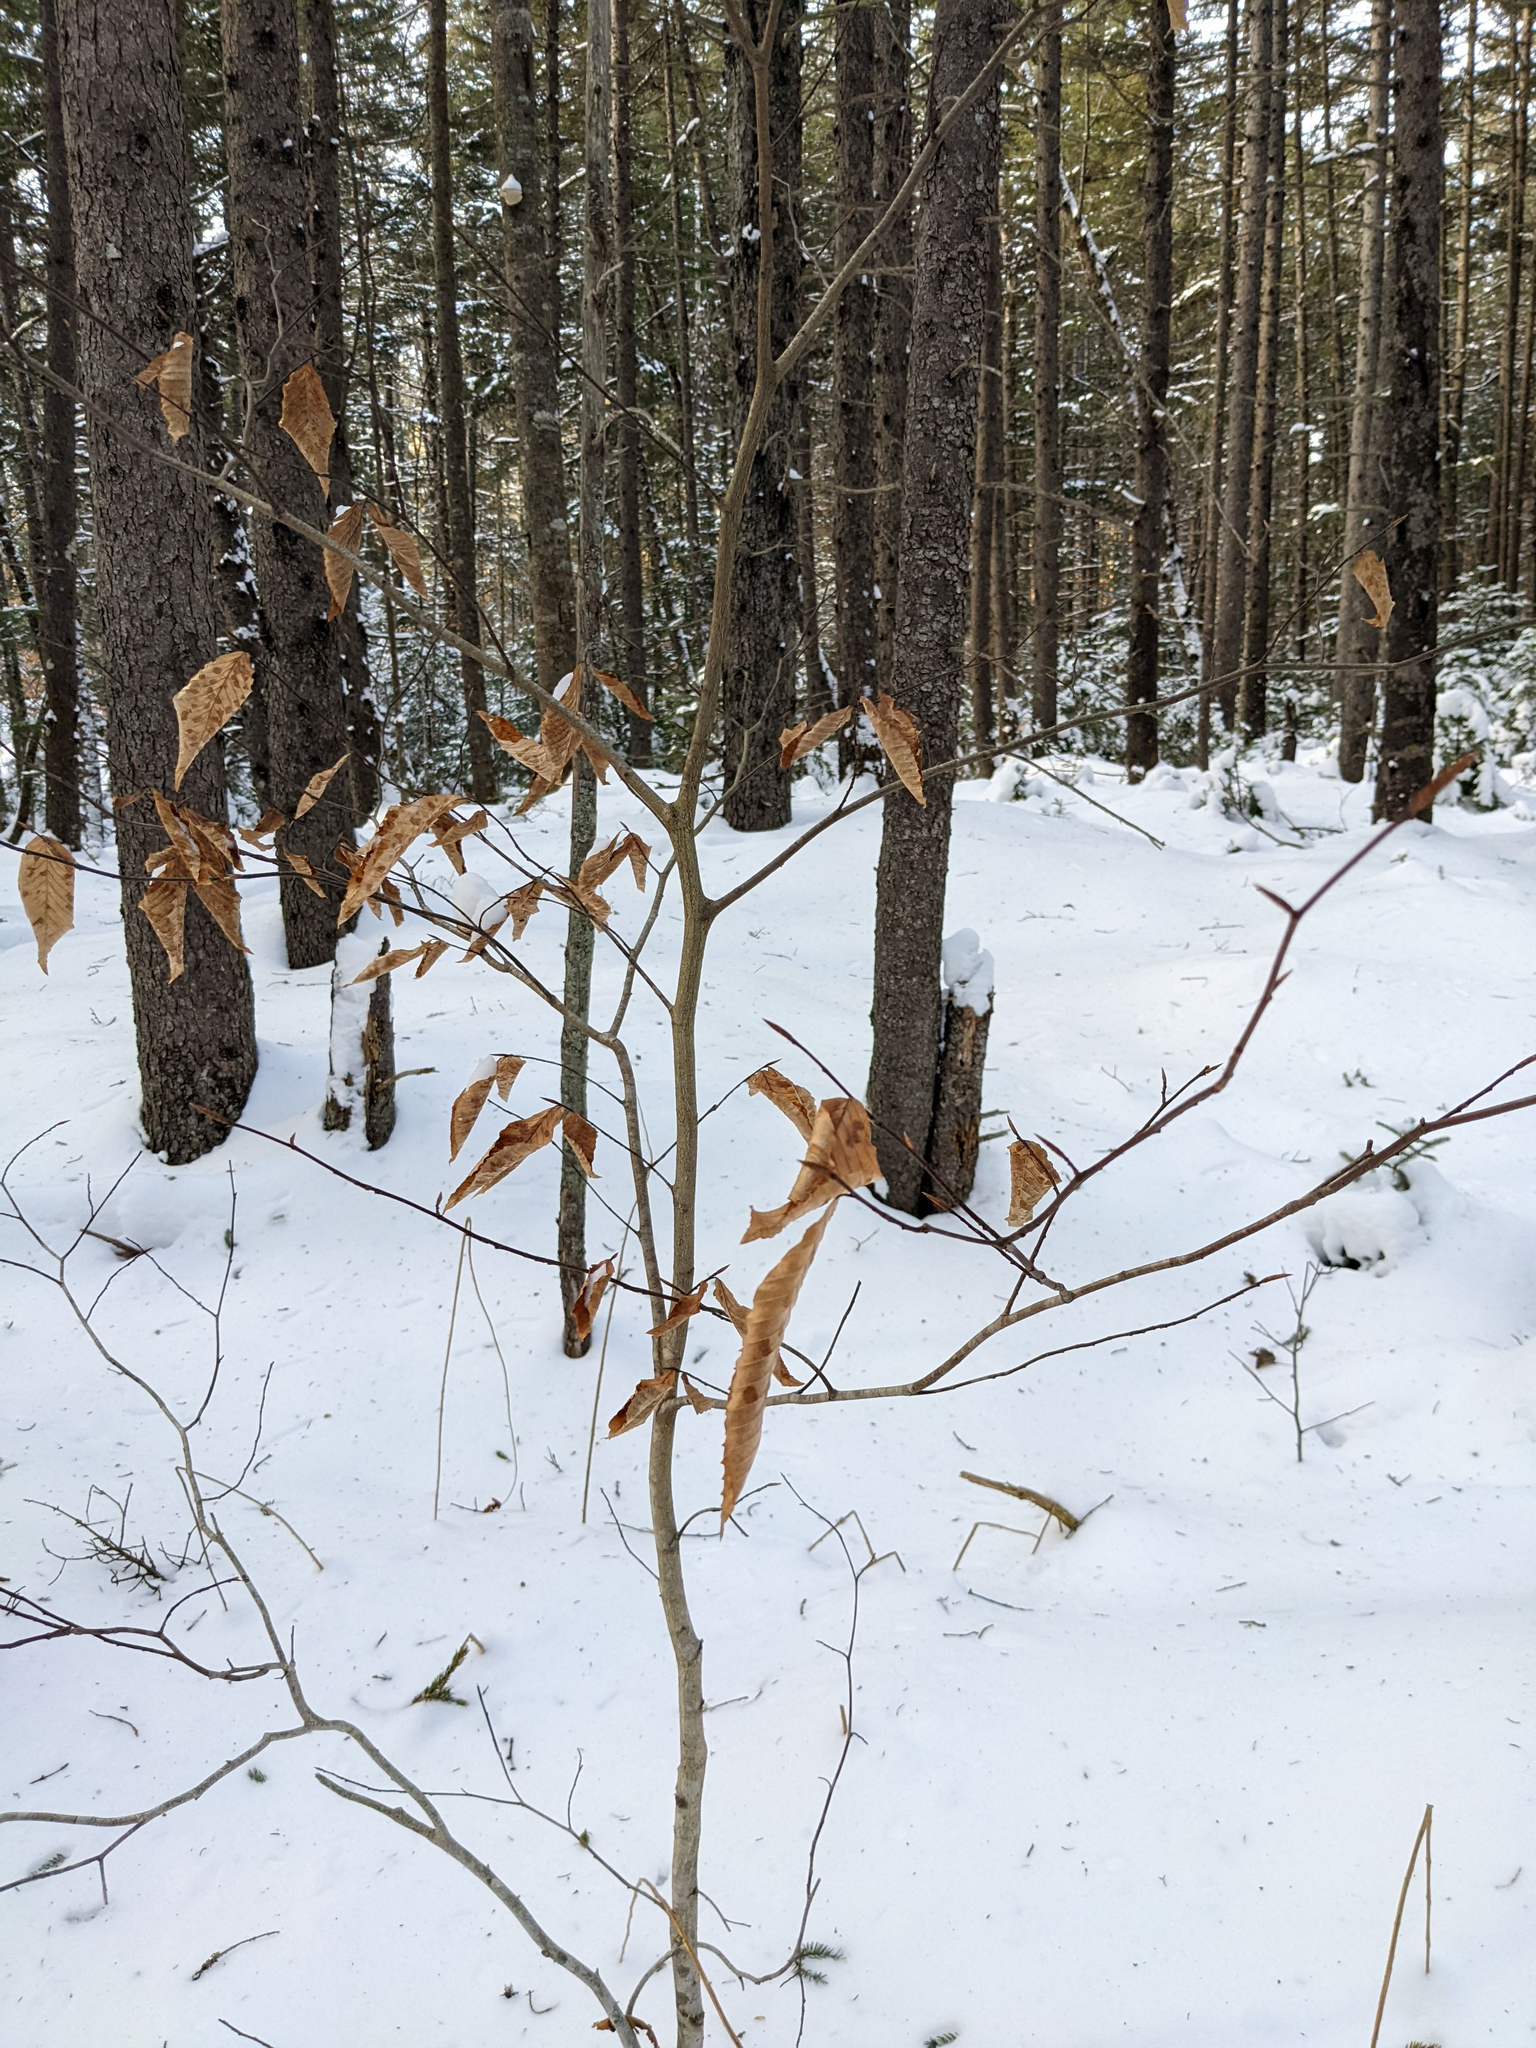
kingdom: Plantae
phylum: Tracheophyta
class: Magnoliopsida
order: Fagales
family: Fagaceae
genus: Fagus
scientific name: Fagus grandifolia
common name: American beech
